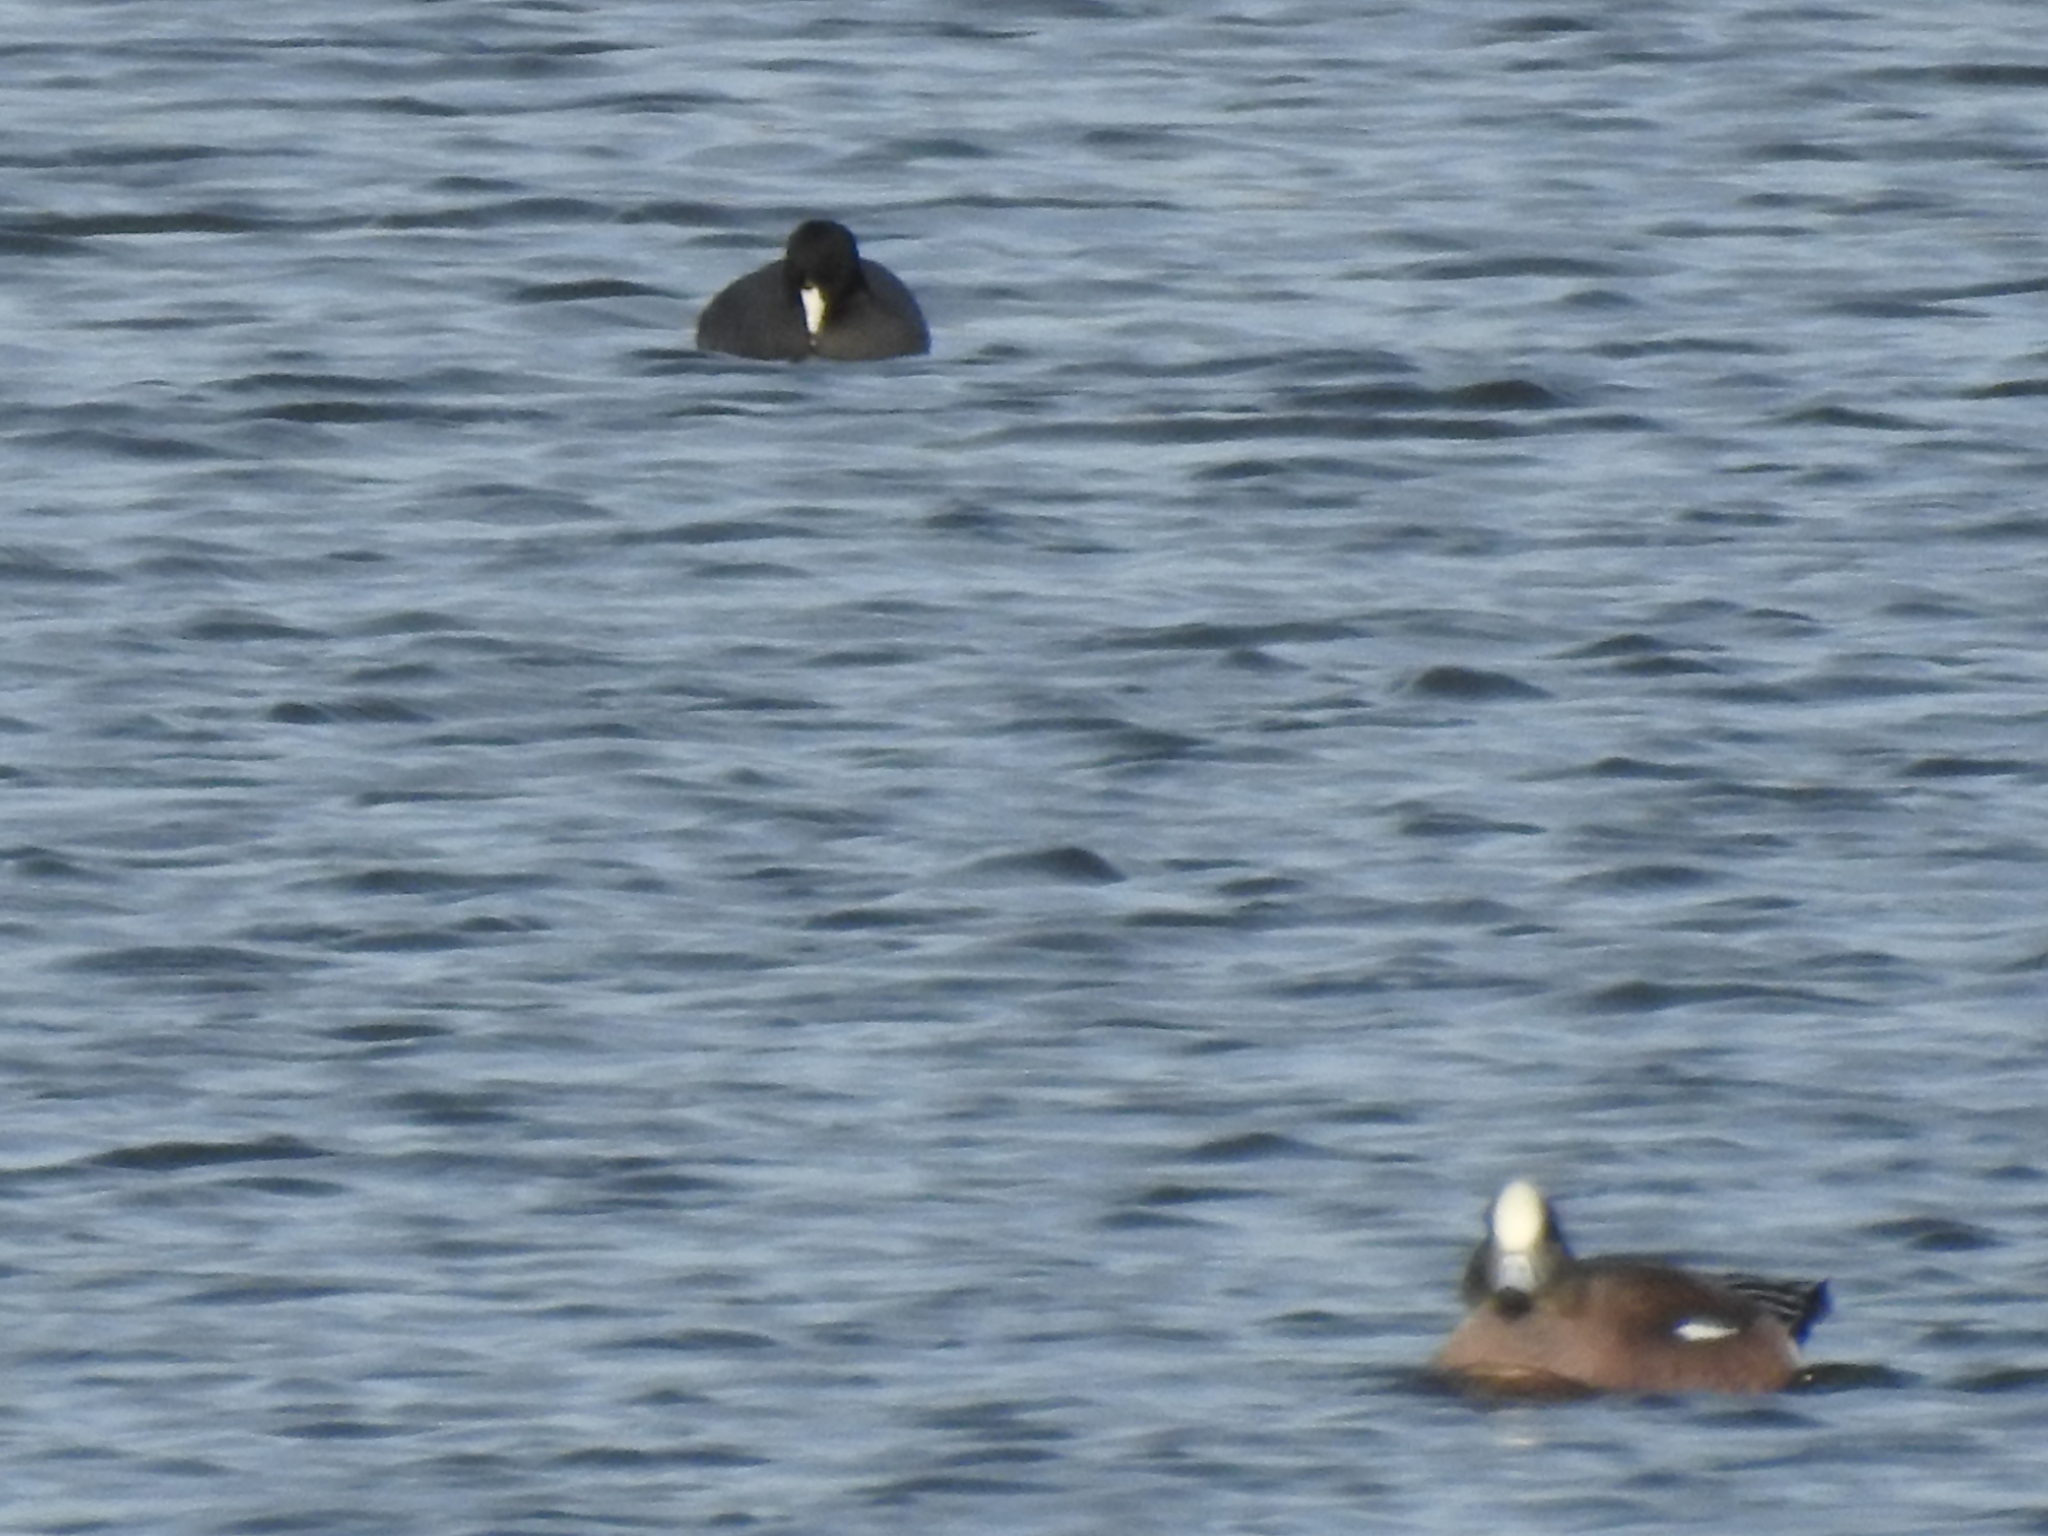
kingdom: Animalia
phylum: Chordata
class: Aves
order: Gruiformes
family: Rallidae
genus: Fulica
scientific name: Fulica americana
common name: American coot
